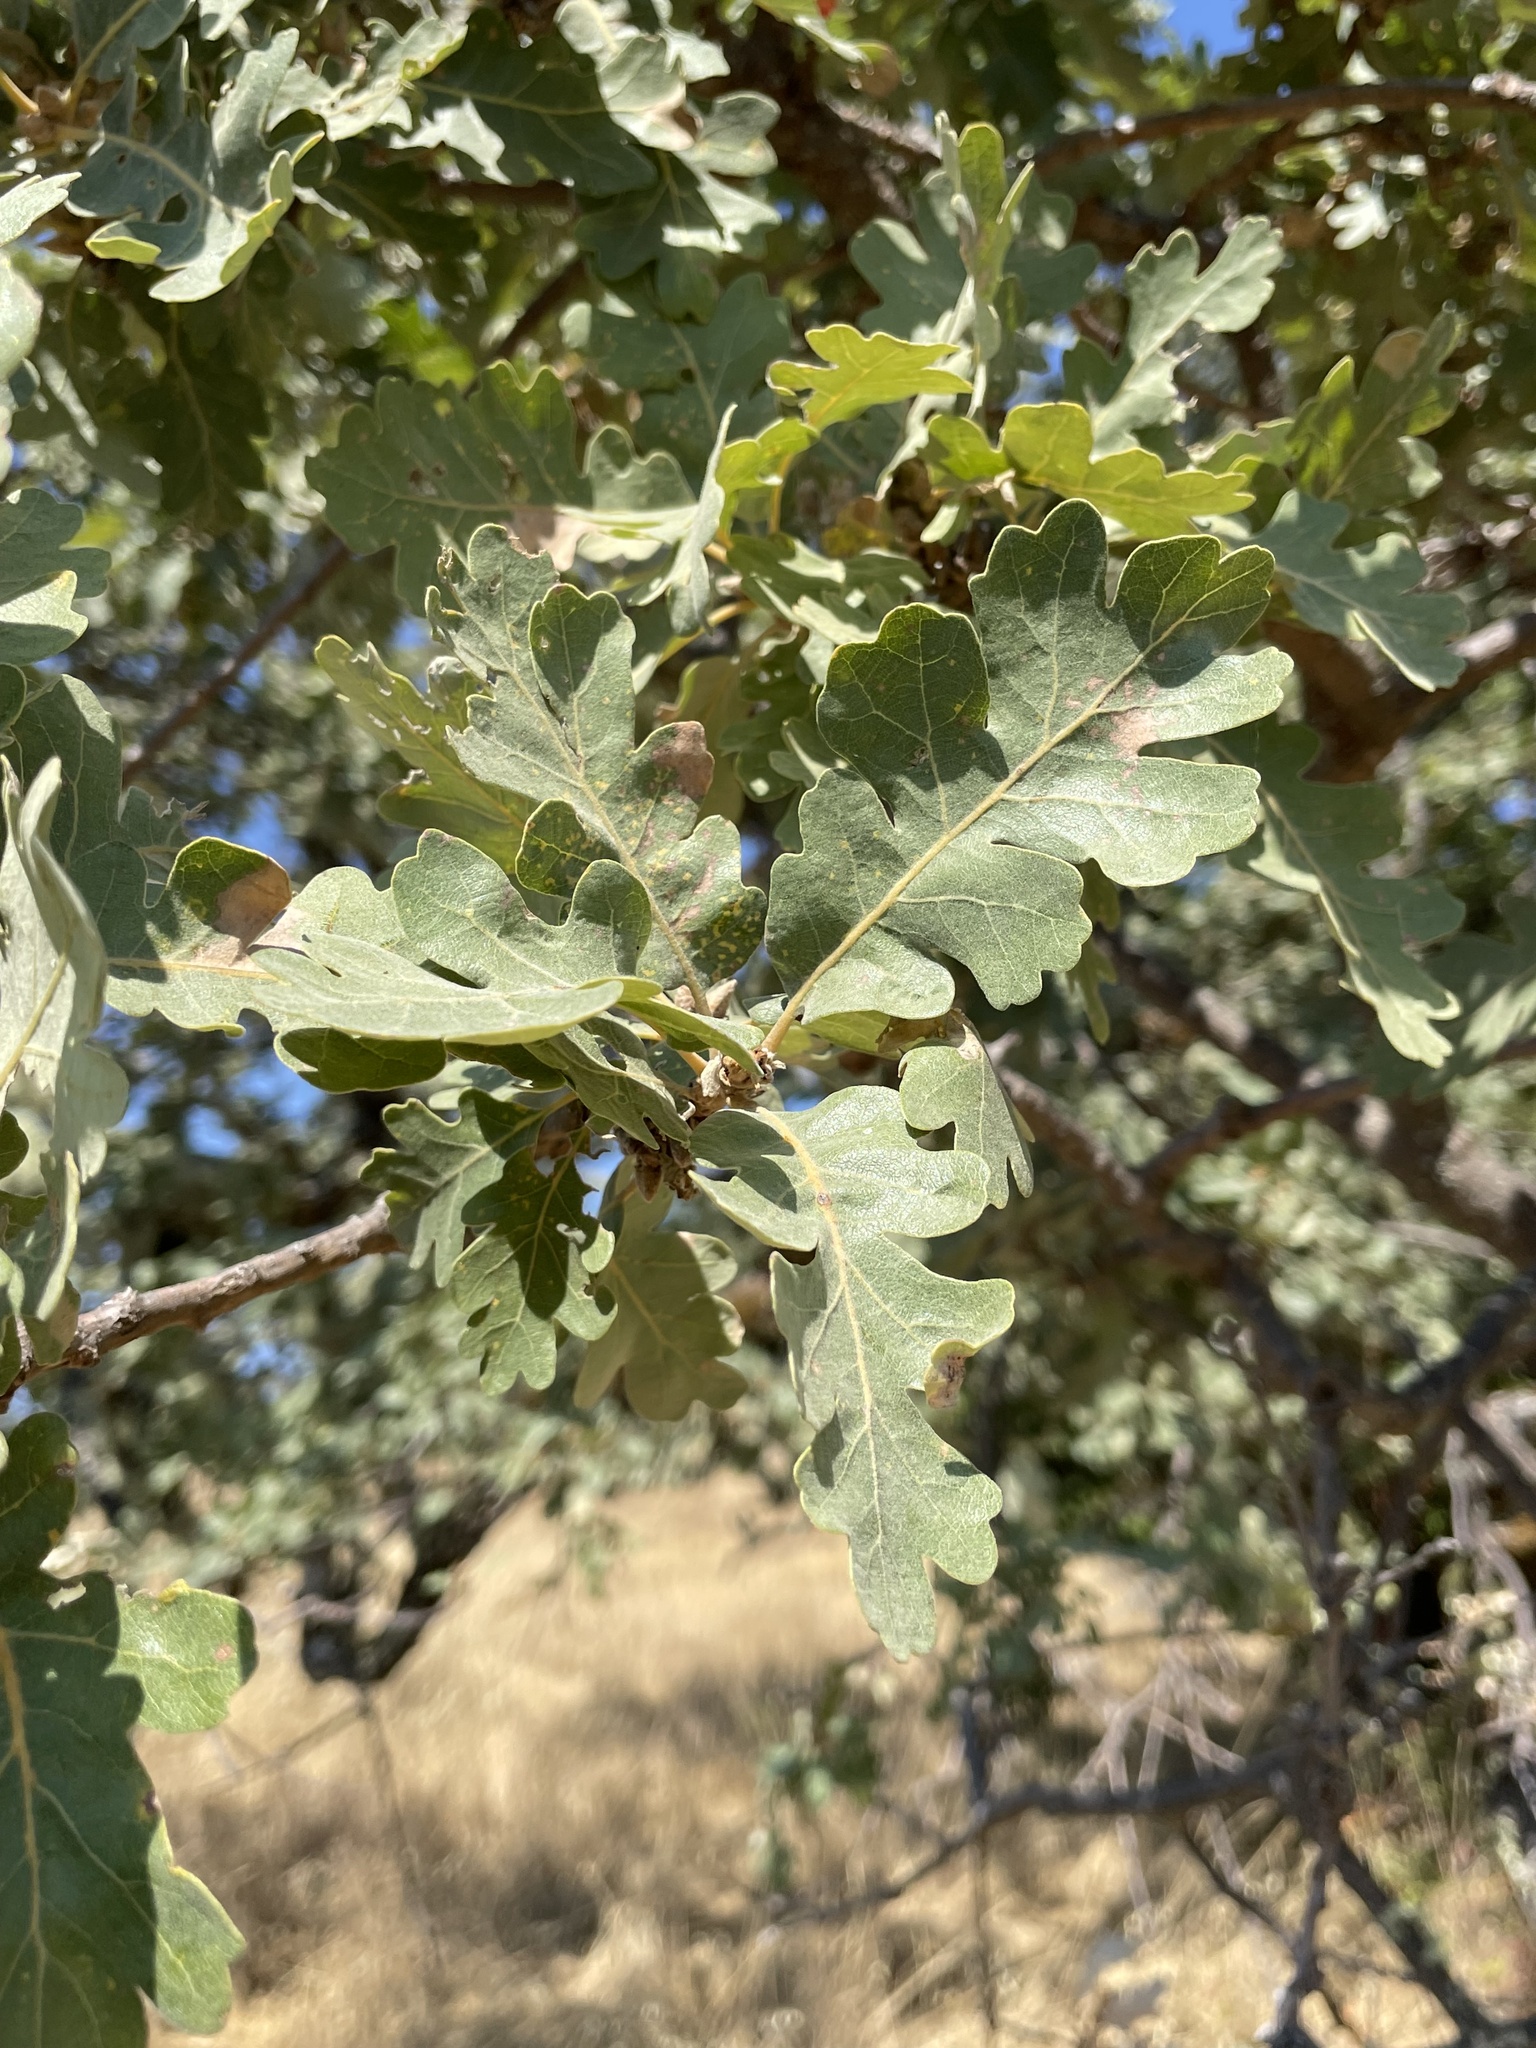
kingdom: Plantae
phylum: Tracheophyta
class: Magnoliopsida
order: Fagales
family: Fagaceae
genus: Quercus
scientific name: Quercus lobata
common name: Valley oak
